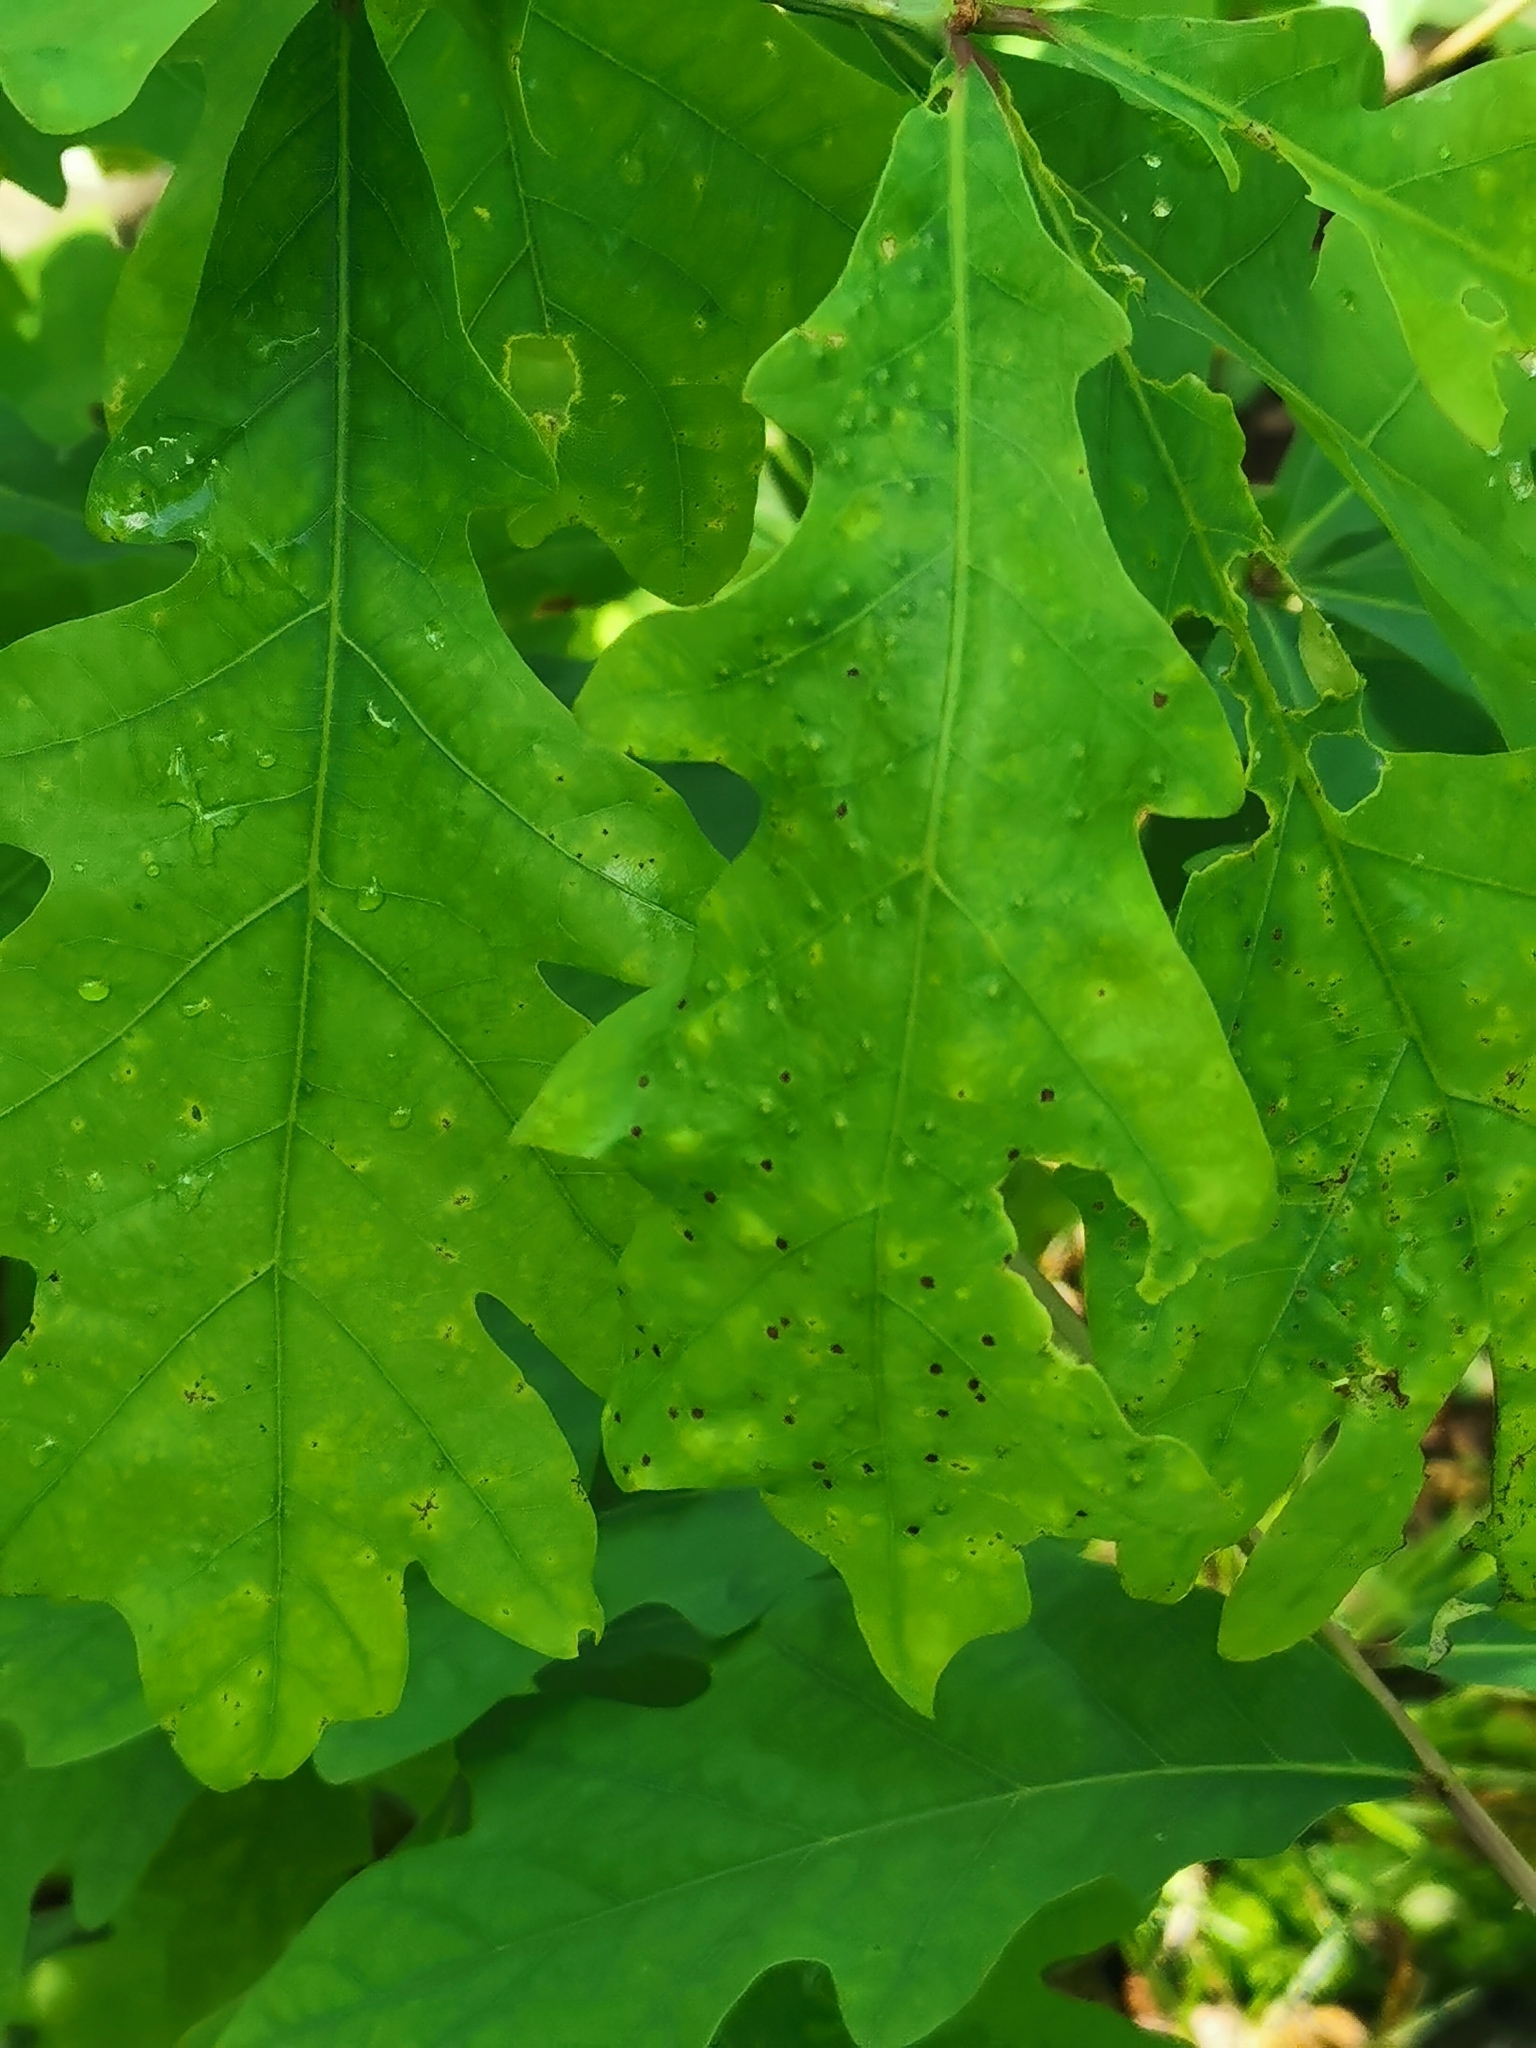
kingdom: Animalia
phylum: Arthropoda
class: Insecta
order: Hymenoptera
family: Cynipidae
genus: Neuroterus
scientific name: Neuroterus
